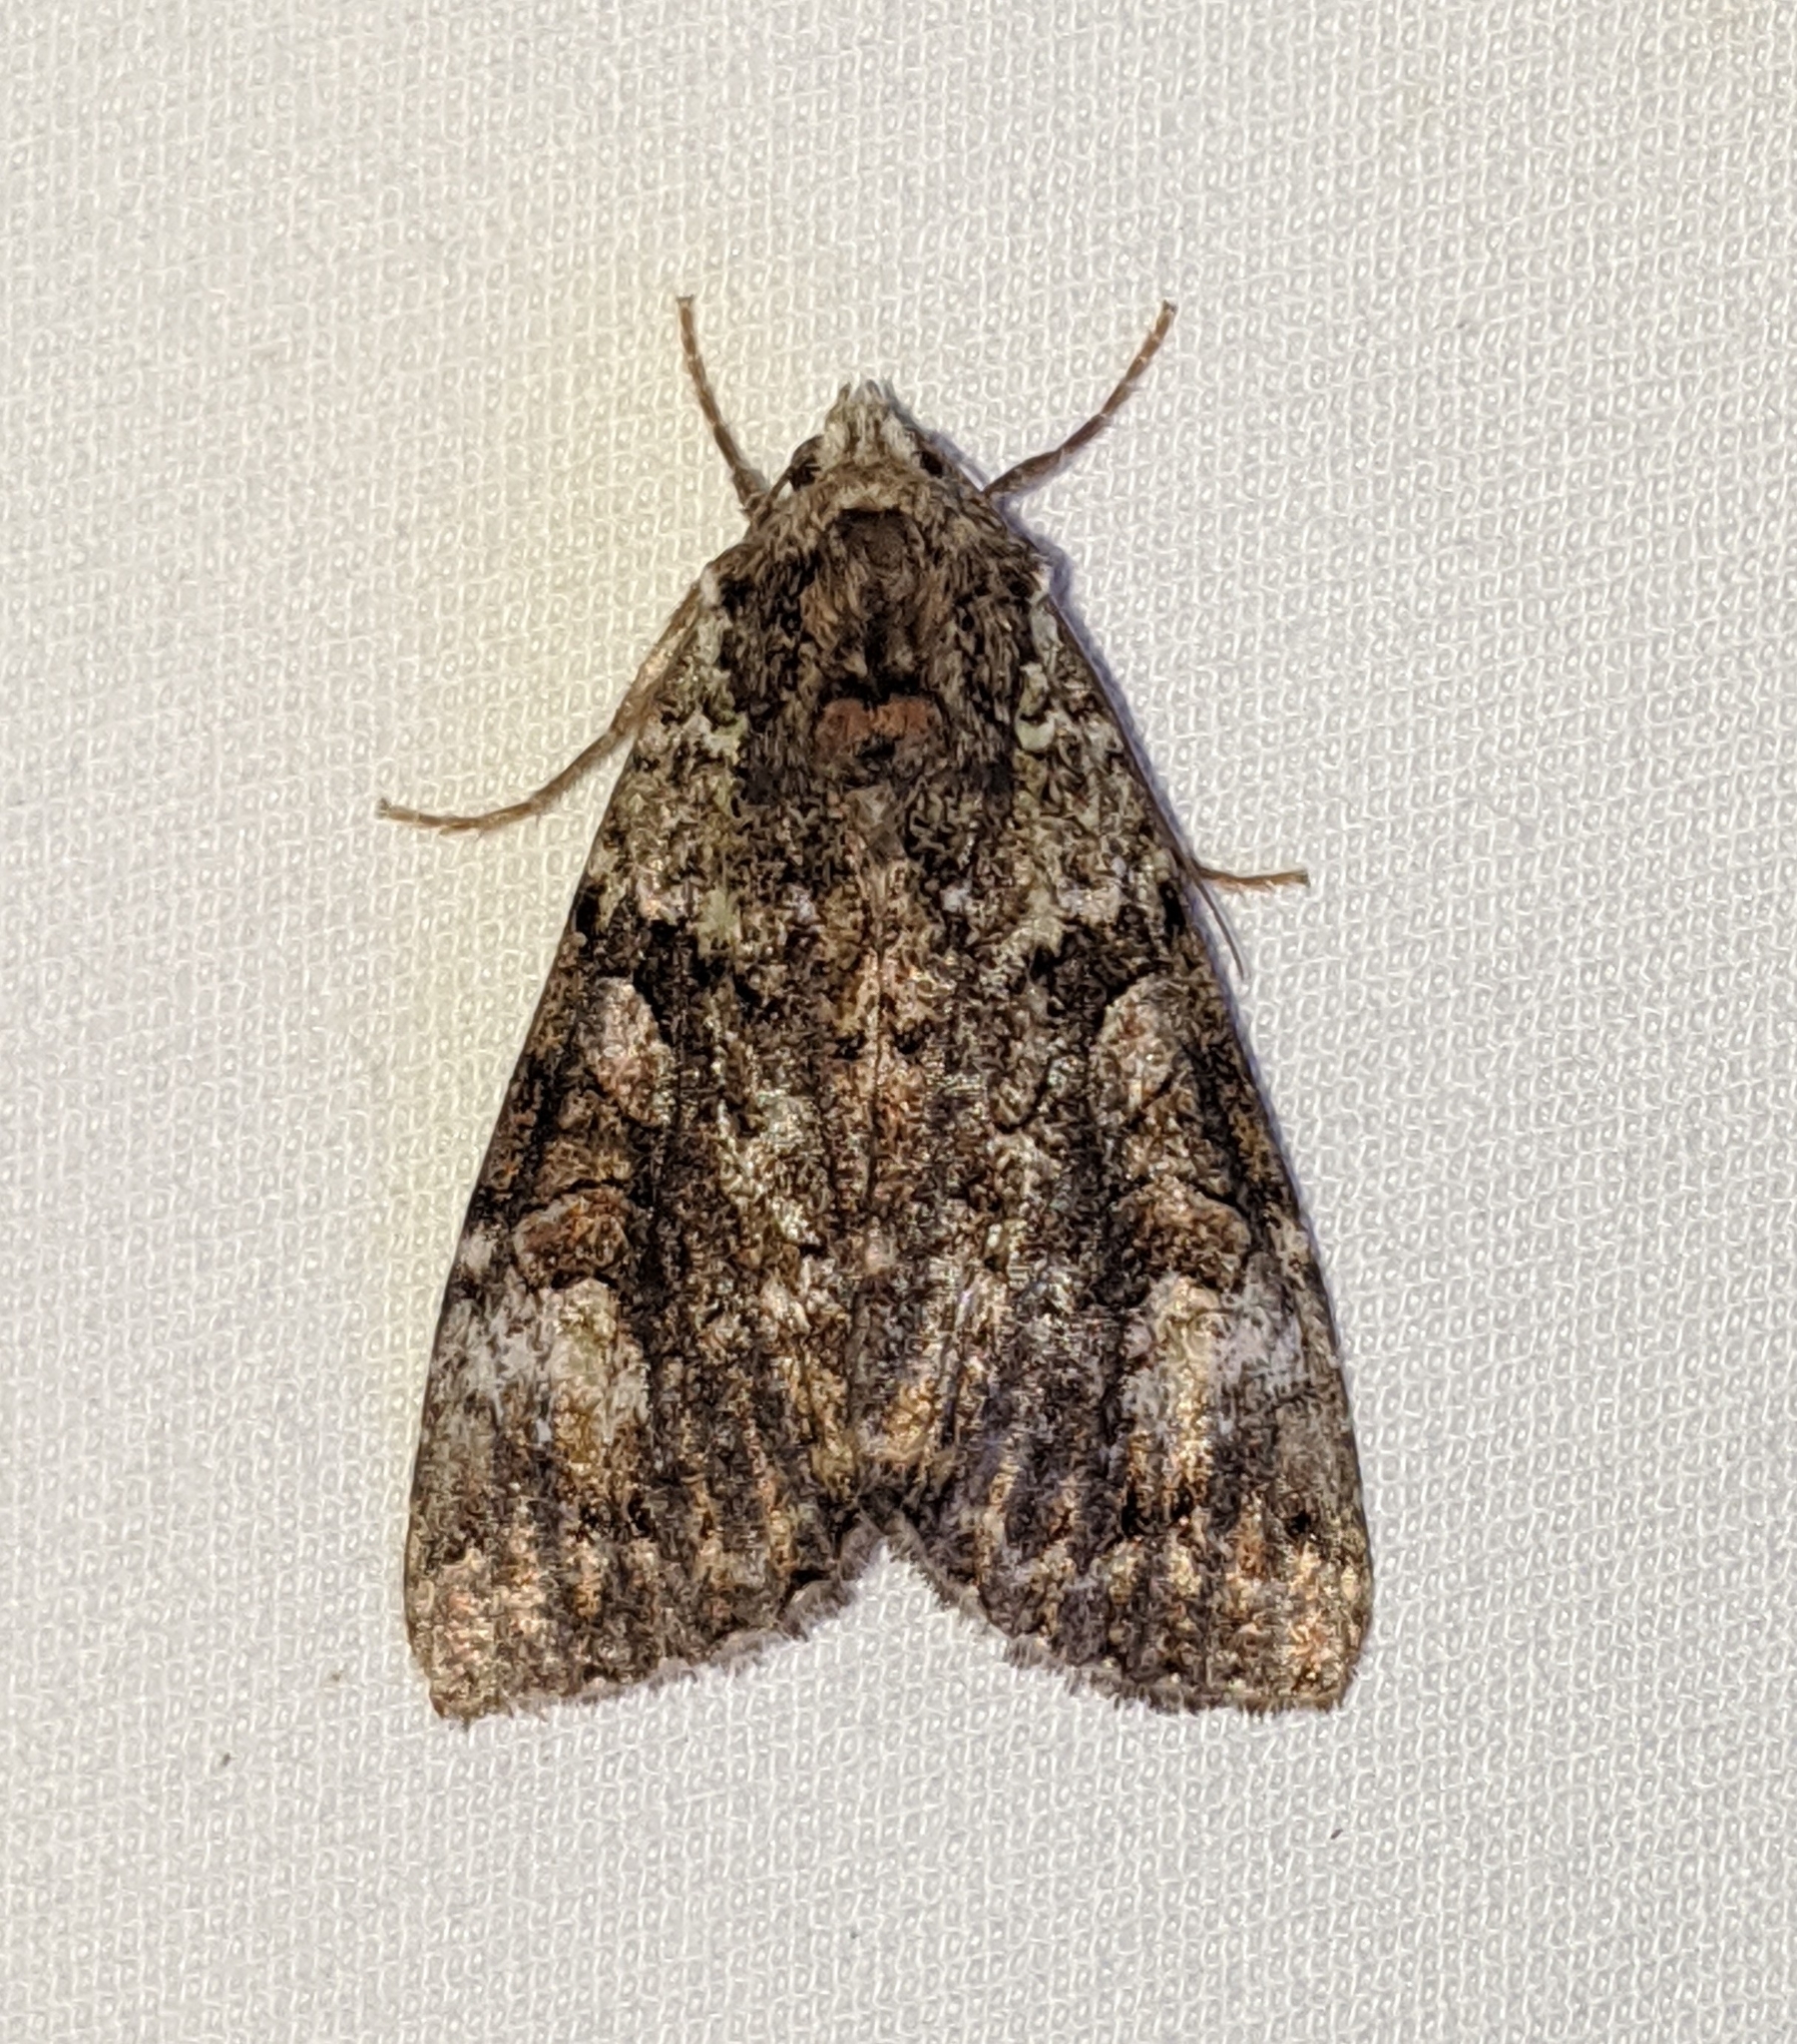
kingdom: Animalia
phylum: Arthropoda
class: Insecta
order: Lepidoptera
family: Noctuidae
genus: Anaplectoides
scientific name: Anaplectoides prasina
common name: Green arches
